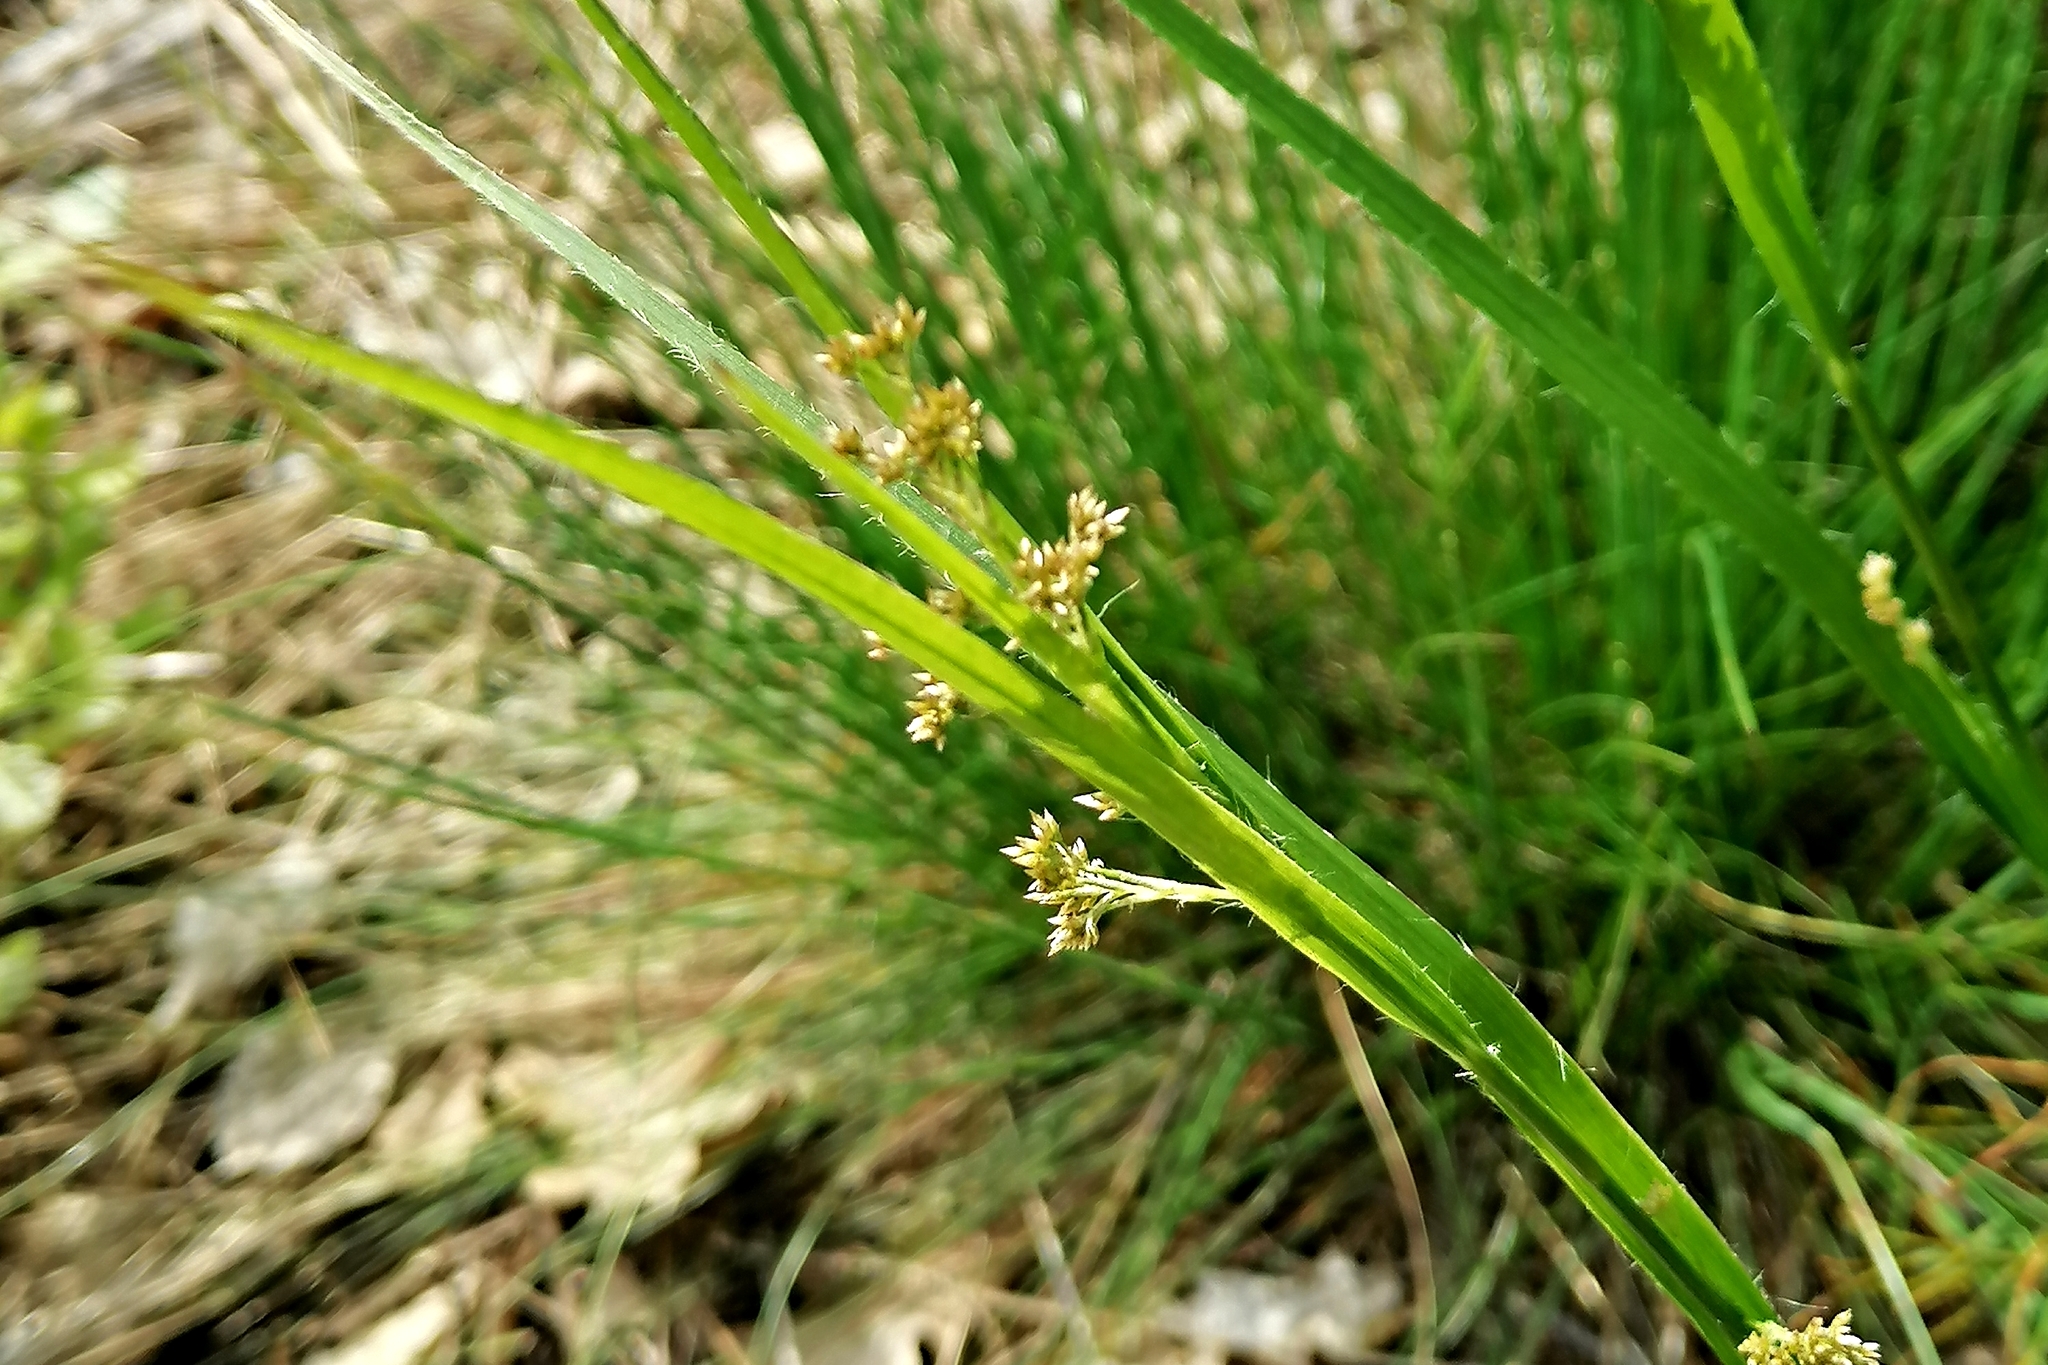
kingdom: Plantae
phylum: Tracheophyta
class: Liliopsida
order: Poales
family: Juncaceae
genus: Luzula
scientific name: Luzula luzuloides
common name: White wood-rush
